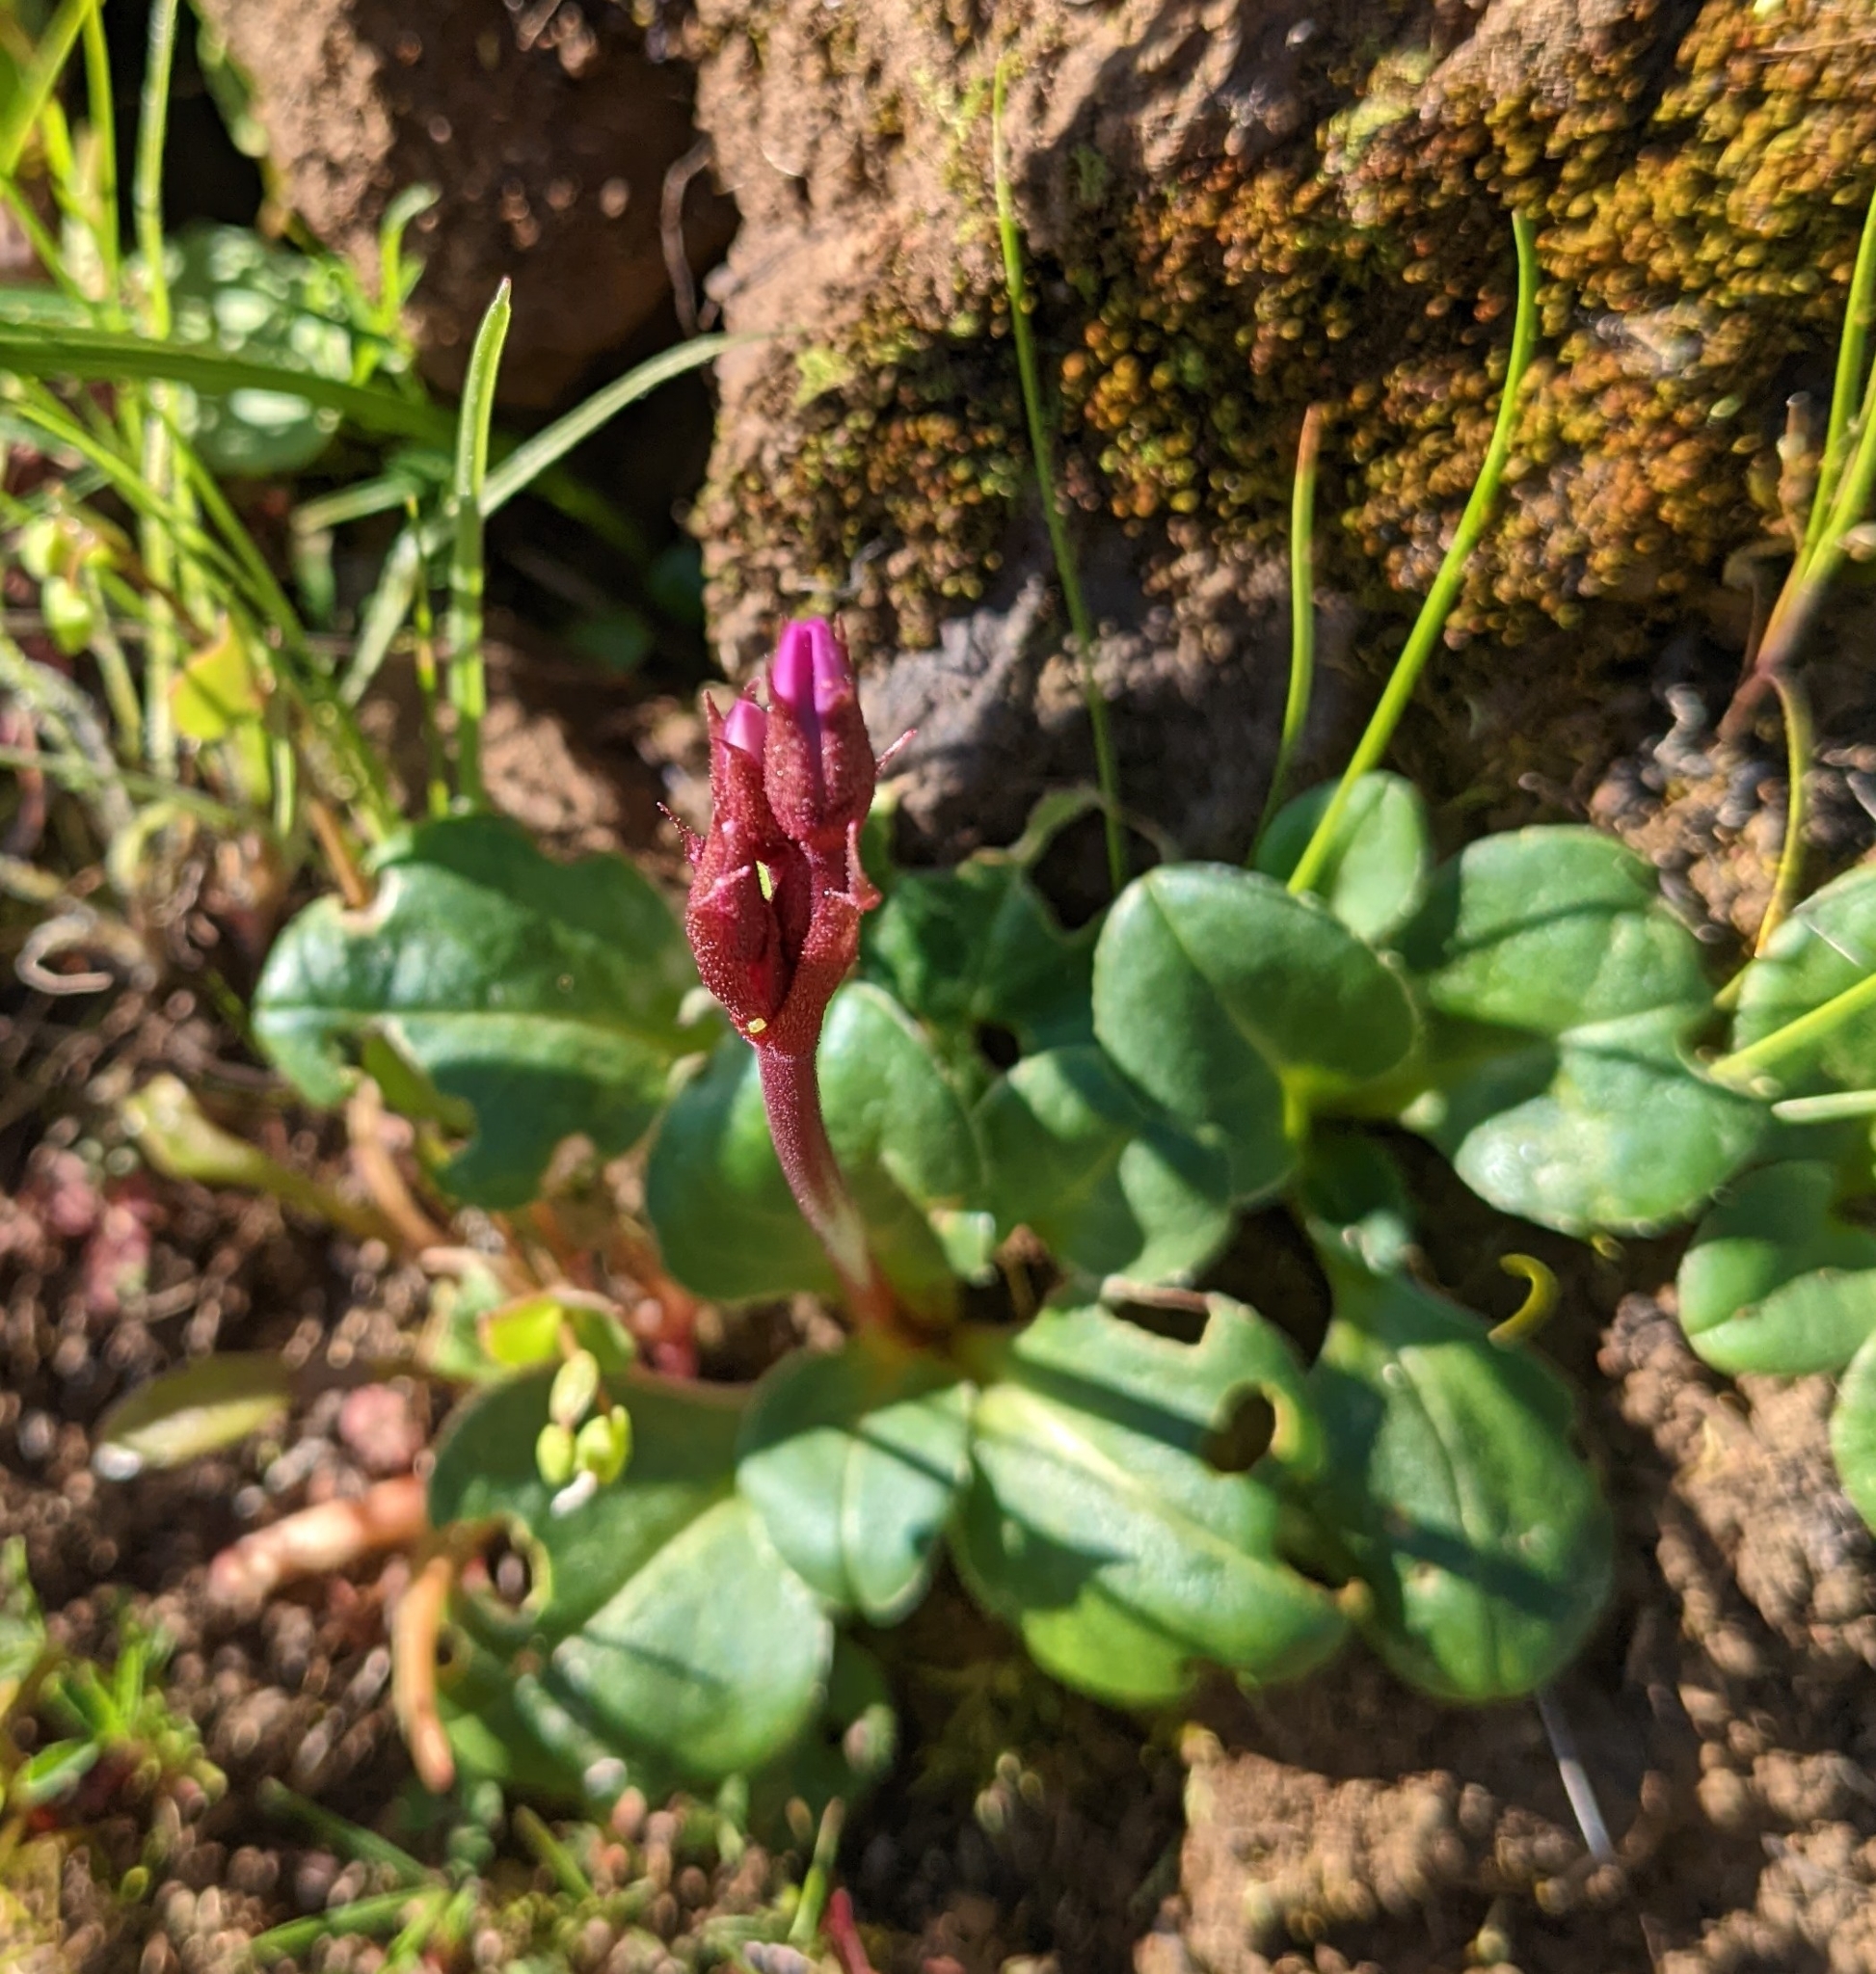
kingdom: Plantae
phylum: Tracheophyta
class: Magnoliopsida
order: Ericales
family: Primulaceae
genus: Dodecatheon
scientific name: Dodecatheon hendersonii
